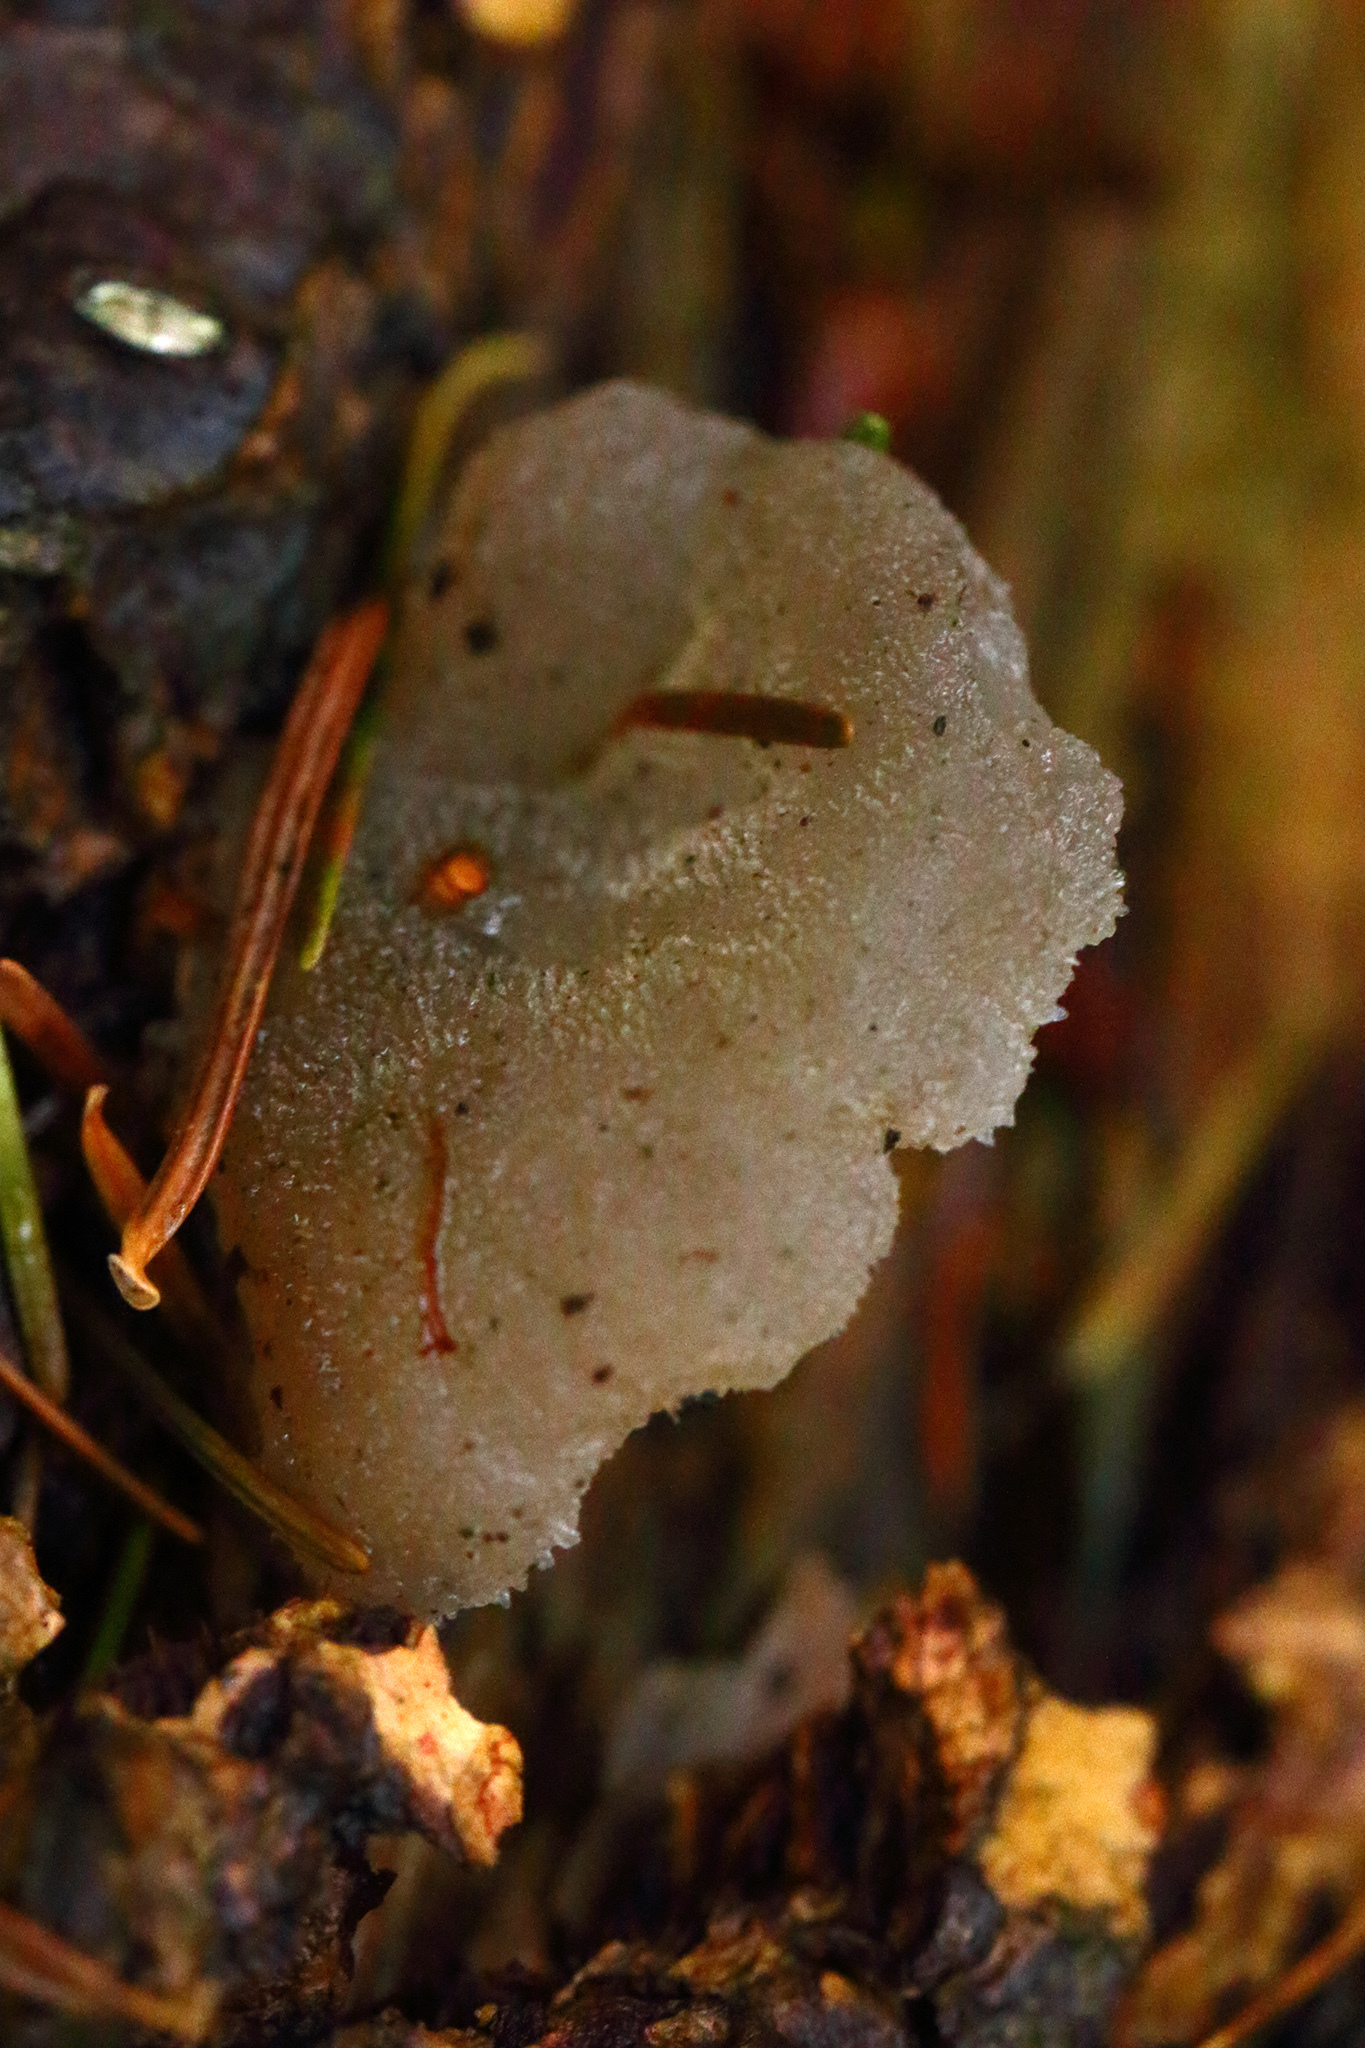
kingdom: Fungi
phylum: Basidiomycota
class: Agaricomycetes
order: Auriculariales
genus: Pseudohydnum
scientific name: Pseudohydnum gelatinosum
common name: Jelly tongue
